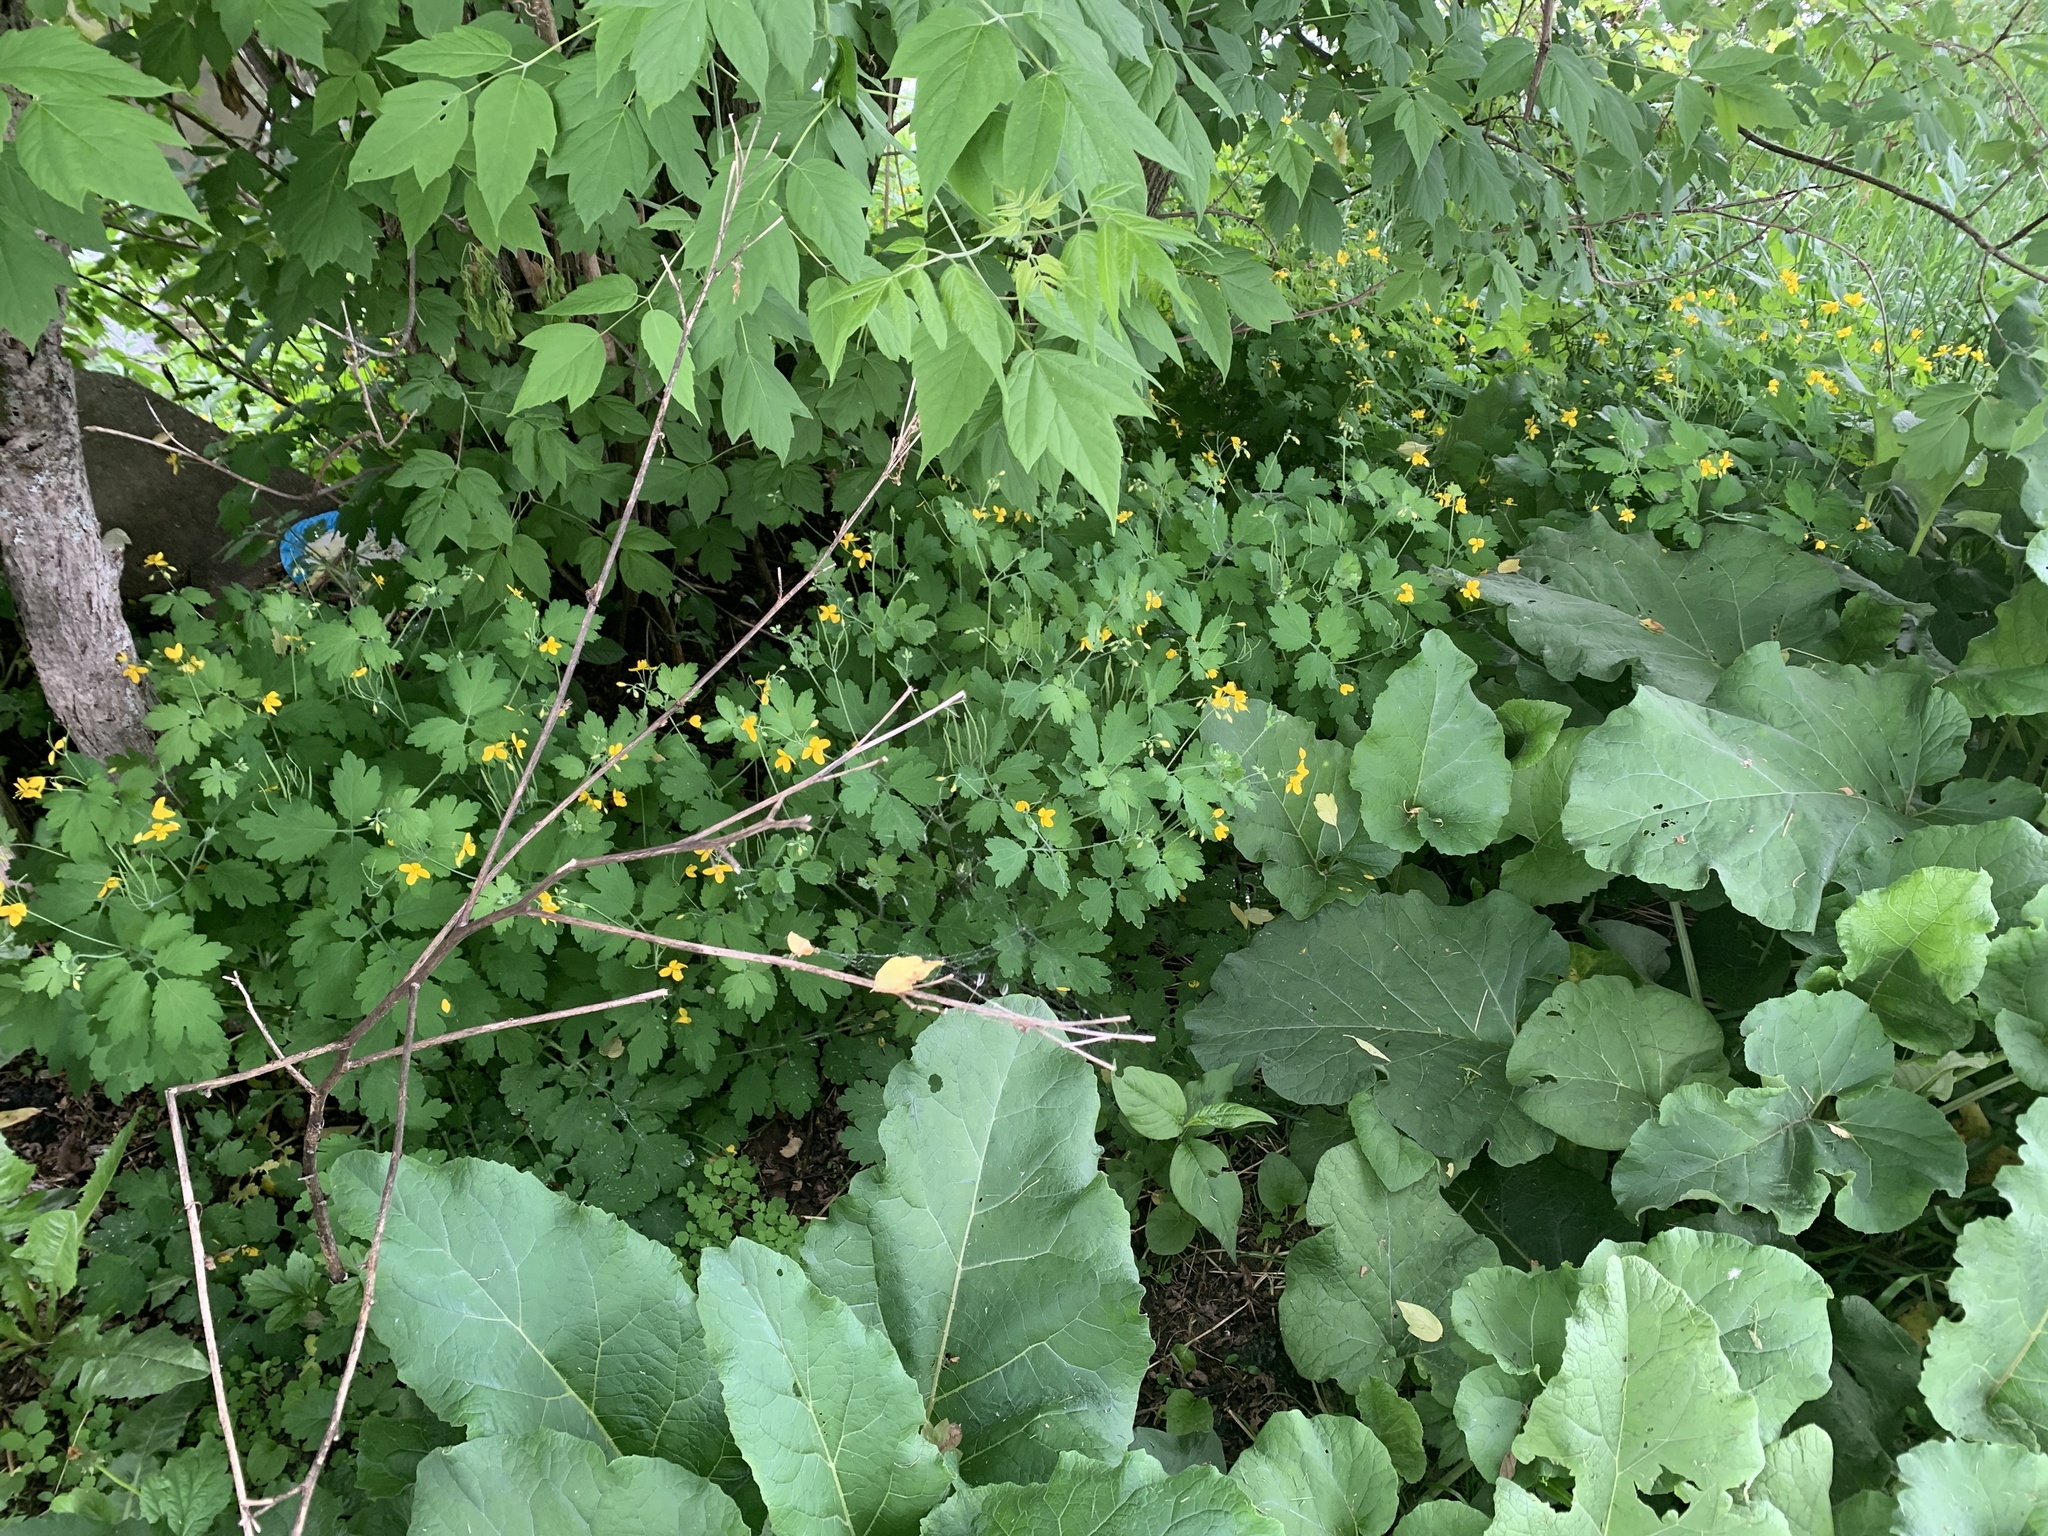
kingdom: Plantae
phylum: Tracheophyta
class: Magnoliopsida
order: Ranunculales
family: Papaveraceae
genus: Chelidonium
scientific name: Chelidonium majus
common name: Greater celandine
